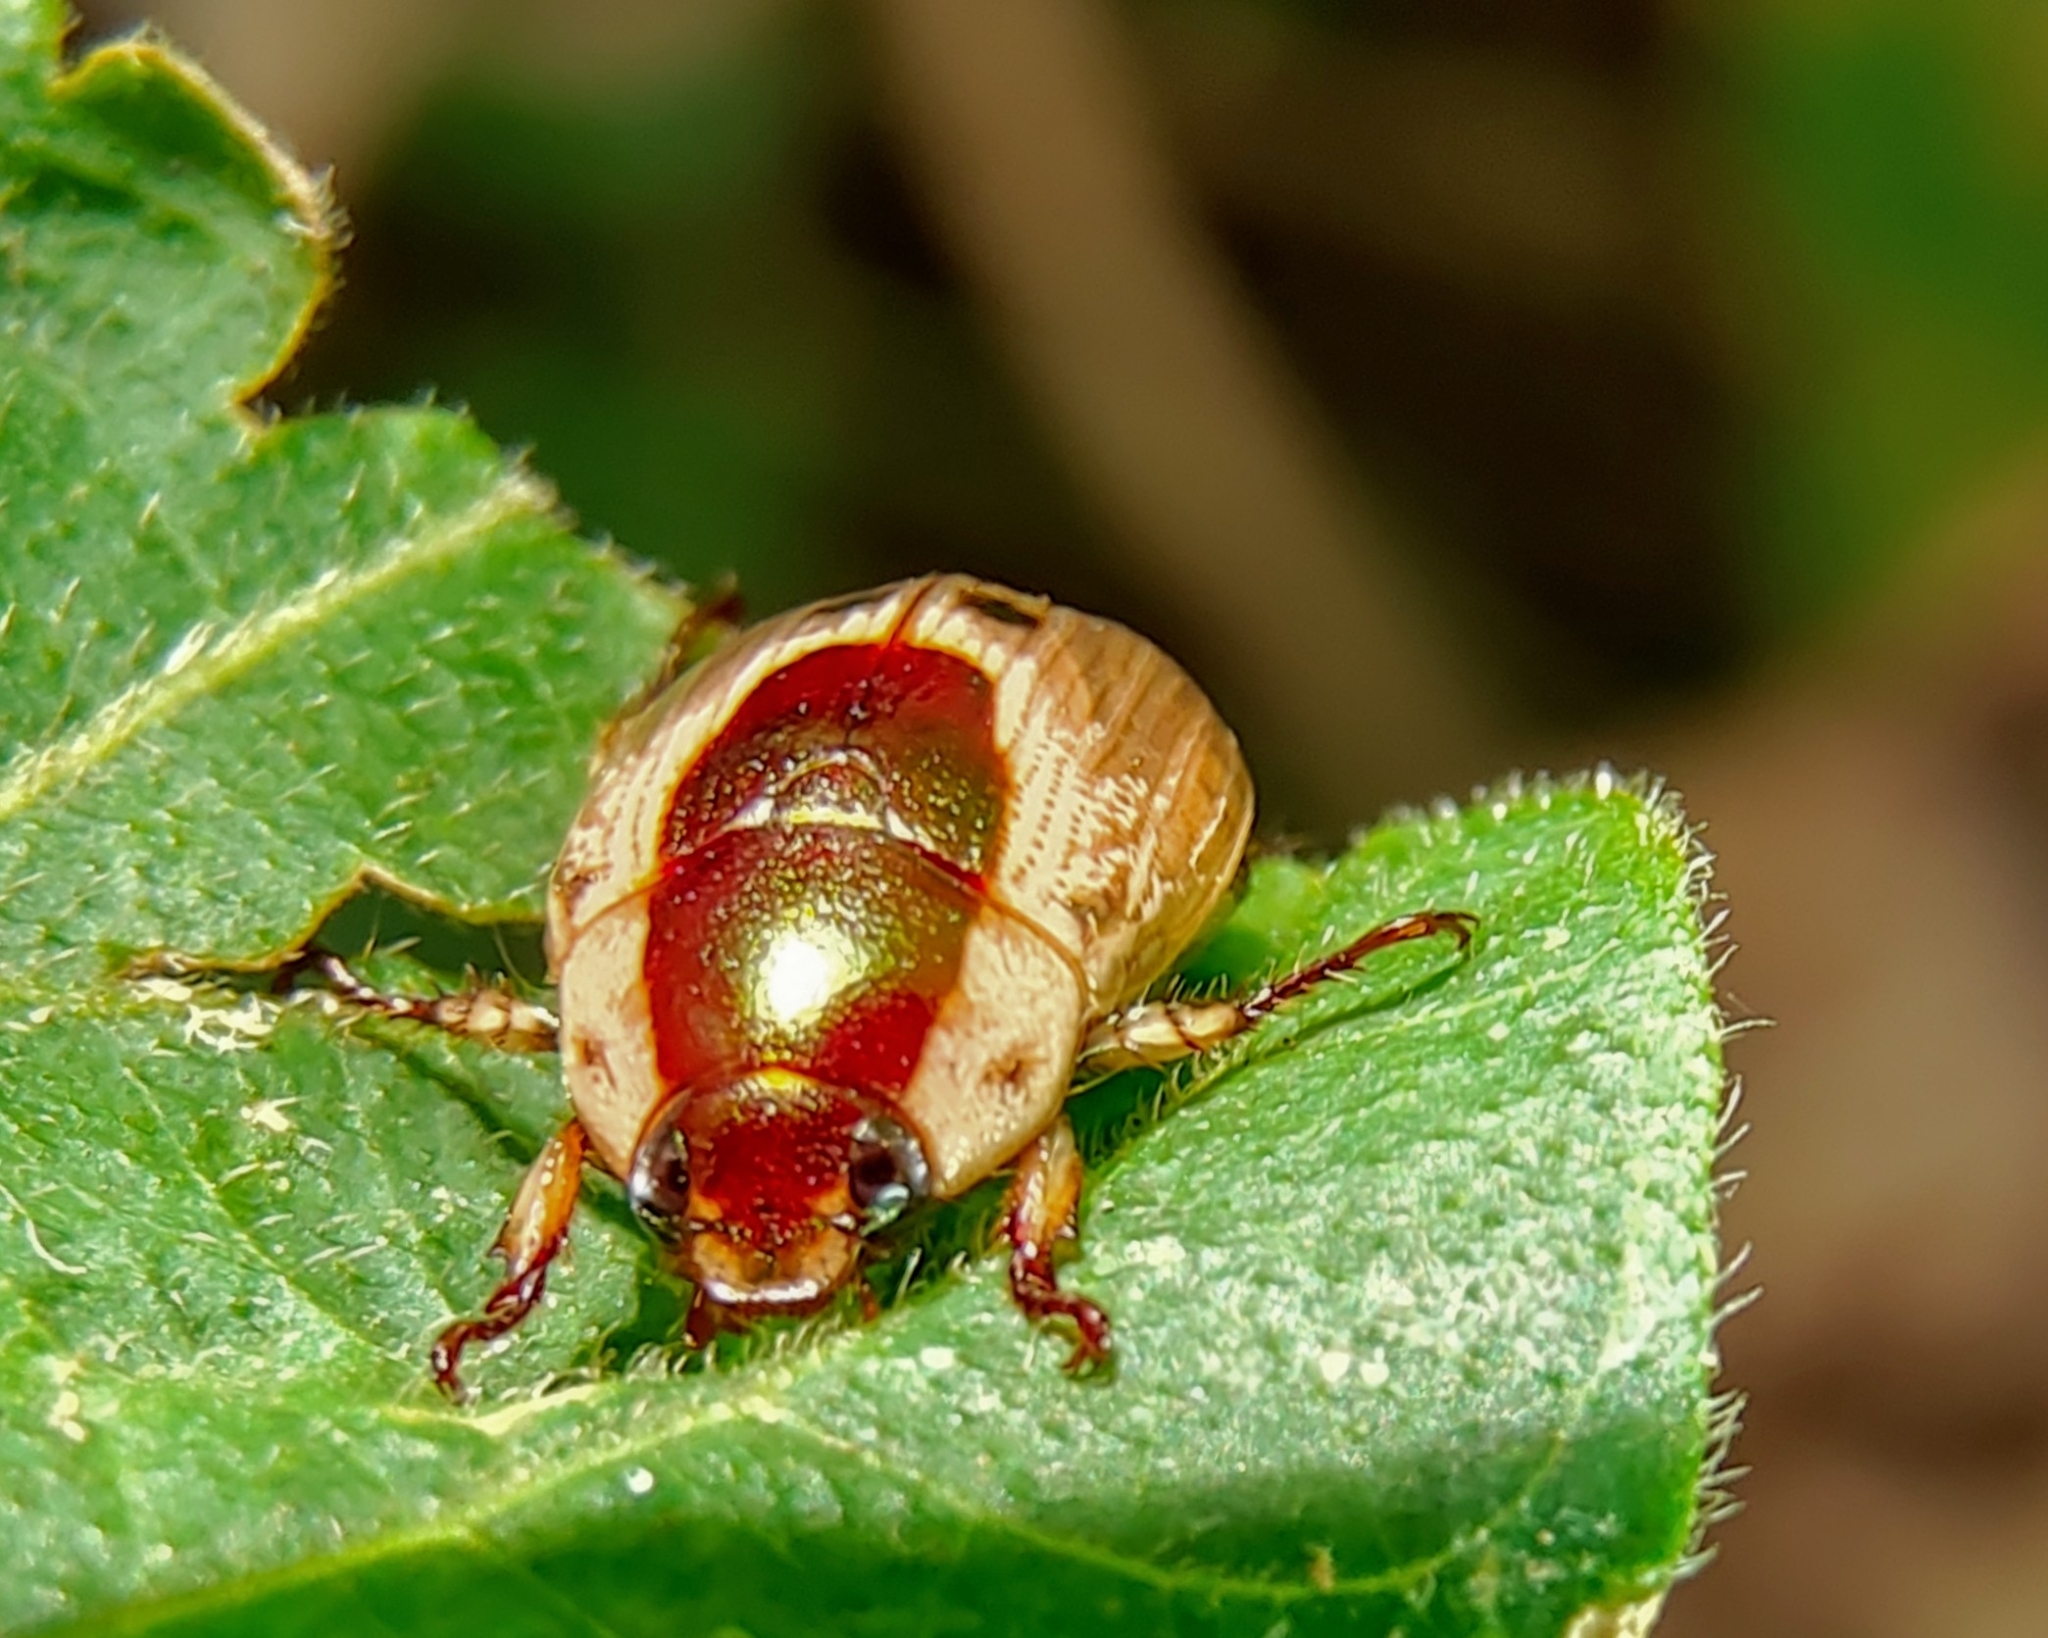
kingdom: Animalia
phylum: Arthropoda
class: Insecta
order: Coleoptera
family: Scarabaeidae
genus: Mimela
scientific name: Mimela discoidea
